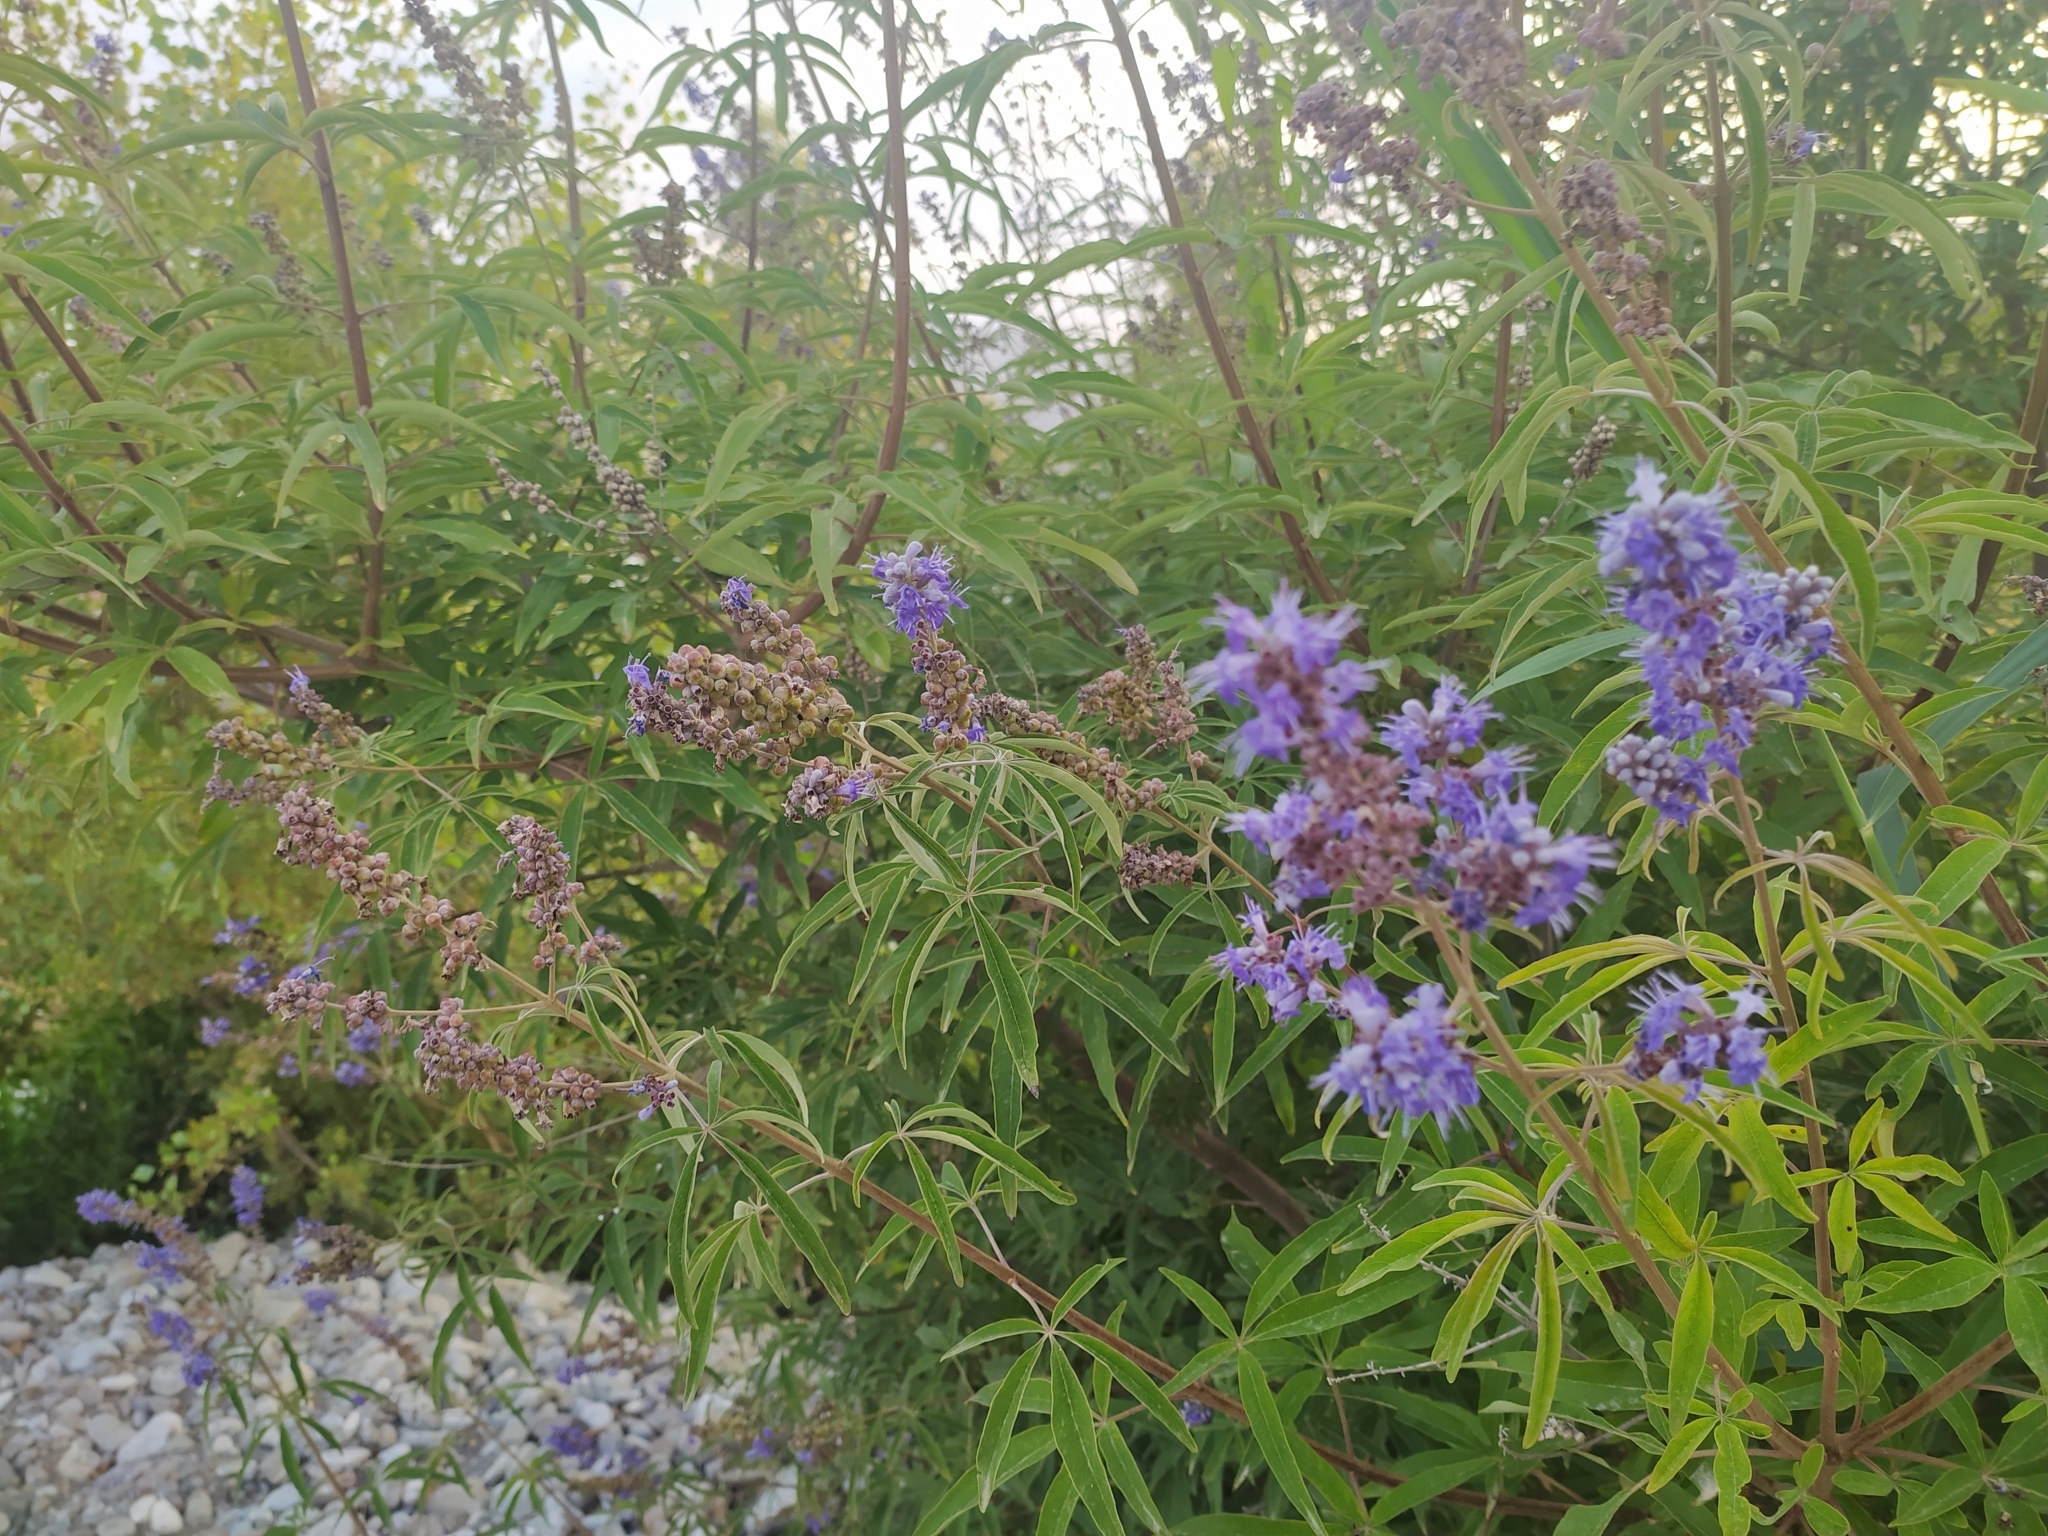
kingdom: Plantae
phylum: Tracheophyta
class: Magnoliopsida
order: Lamiales
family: Lamiaceae
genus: Vitex
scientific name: Vitex agnus-castus
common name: Chasteberry
